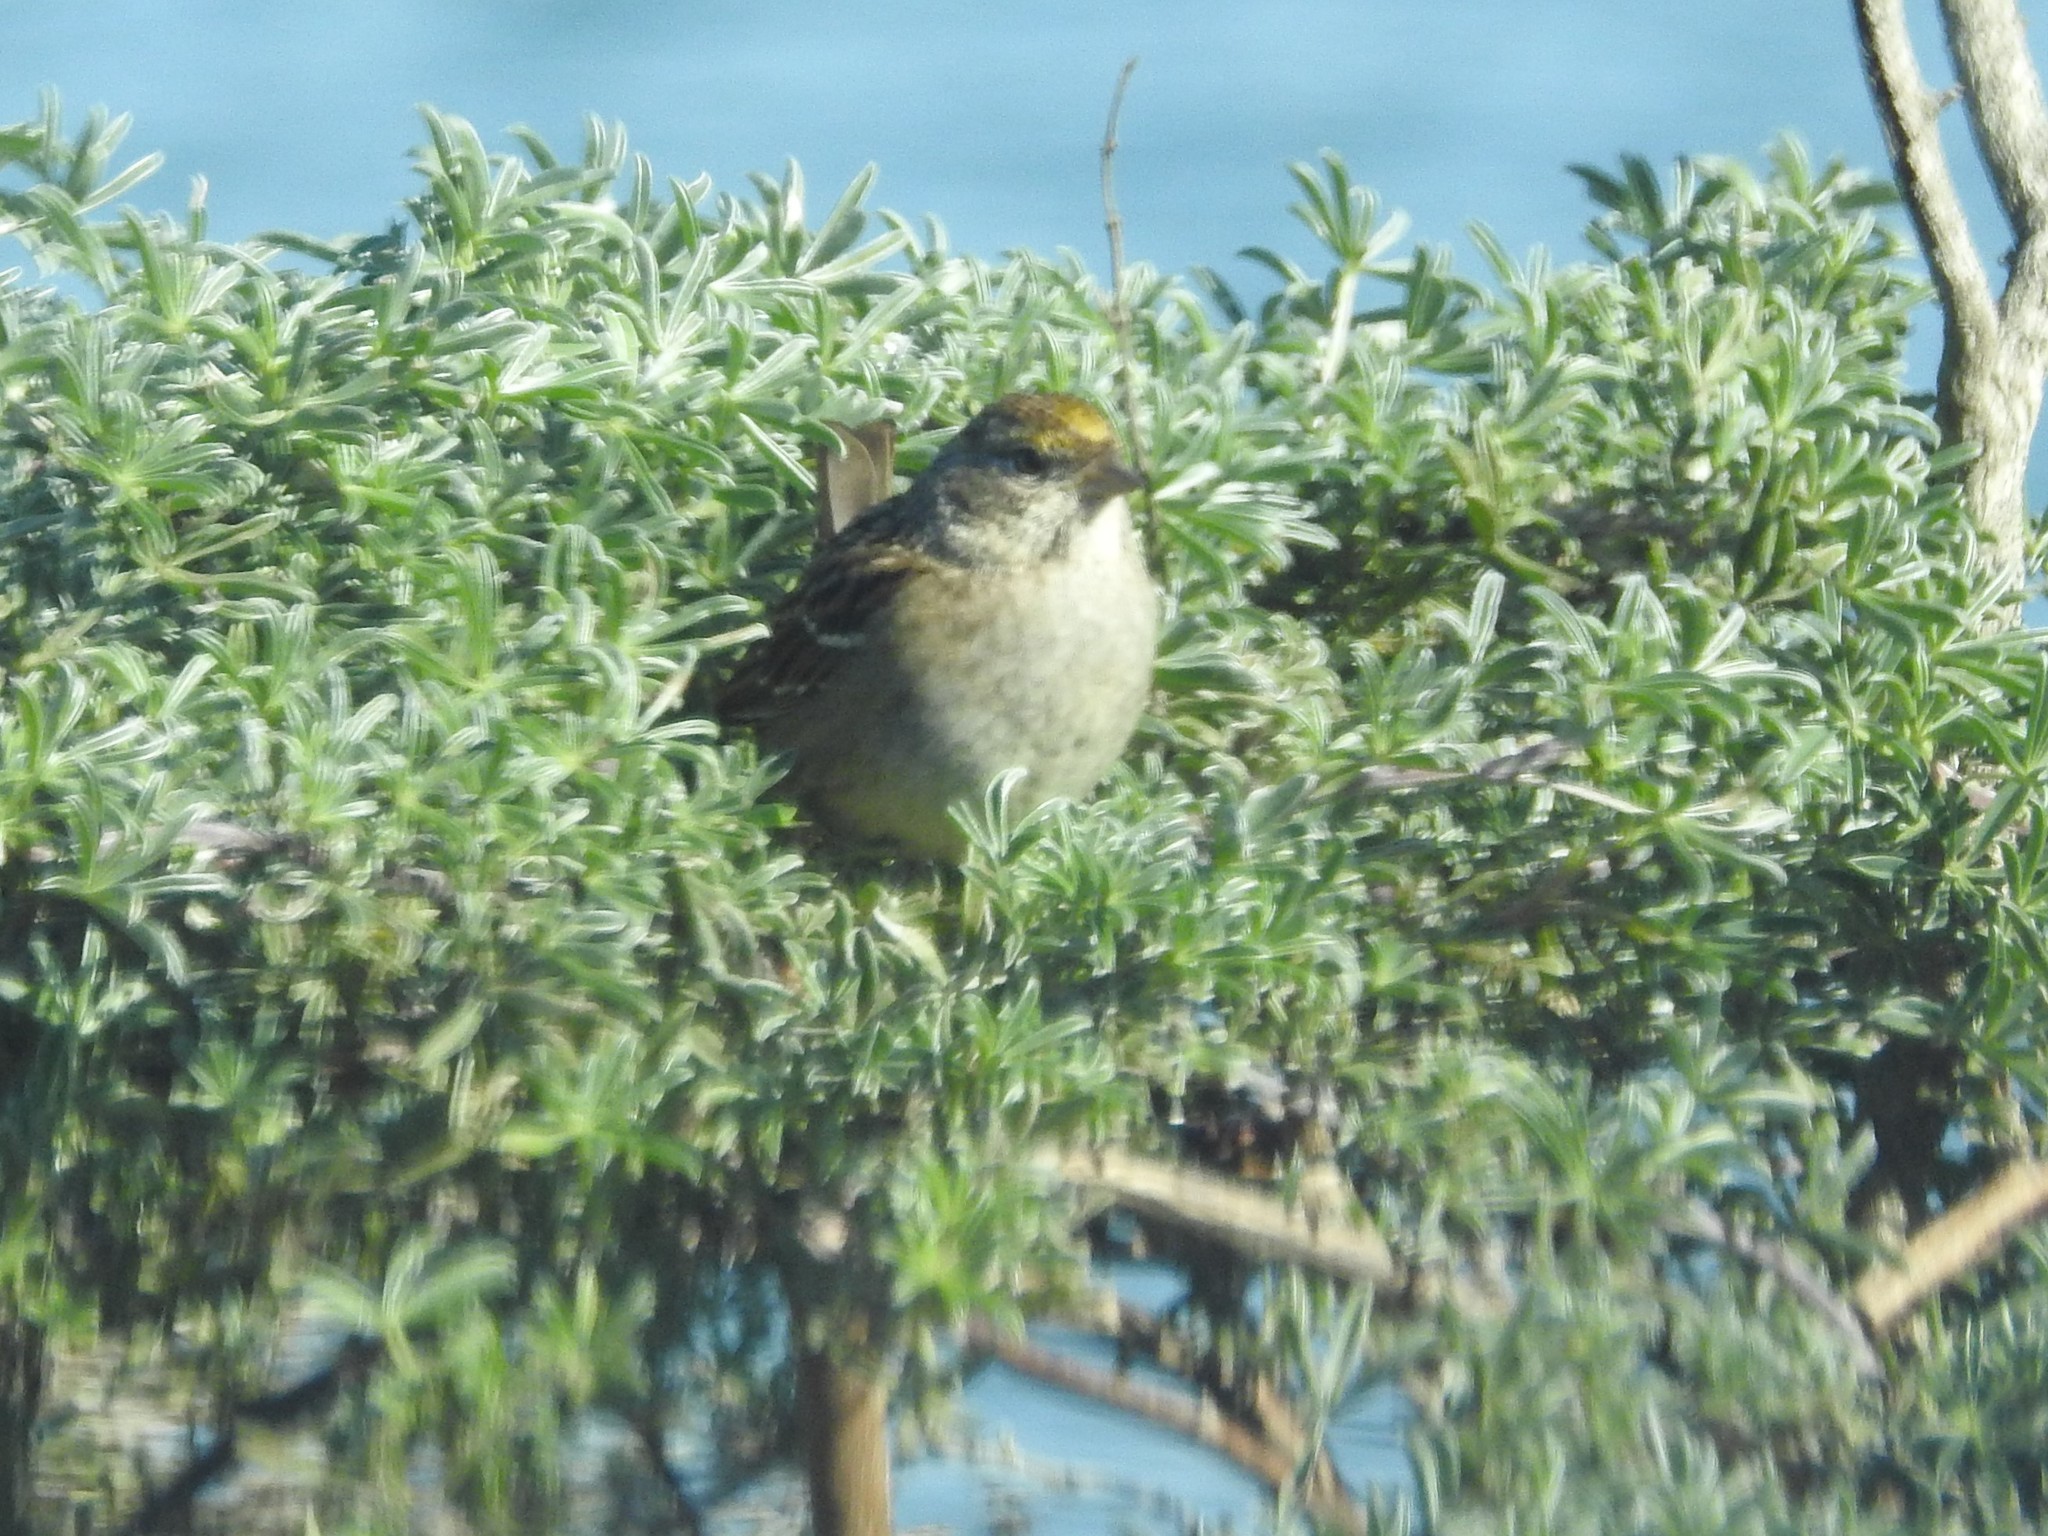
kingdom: Animalia
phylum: Chordata
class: Aves
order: Passeriformes
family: Passerellidae
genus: Zonotrichia
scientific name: Zonotrichia atricapilla
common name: Golden-crowned sparrow
